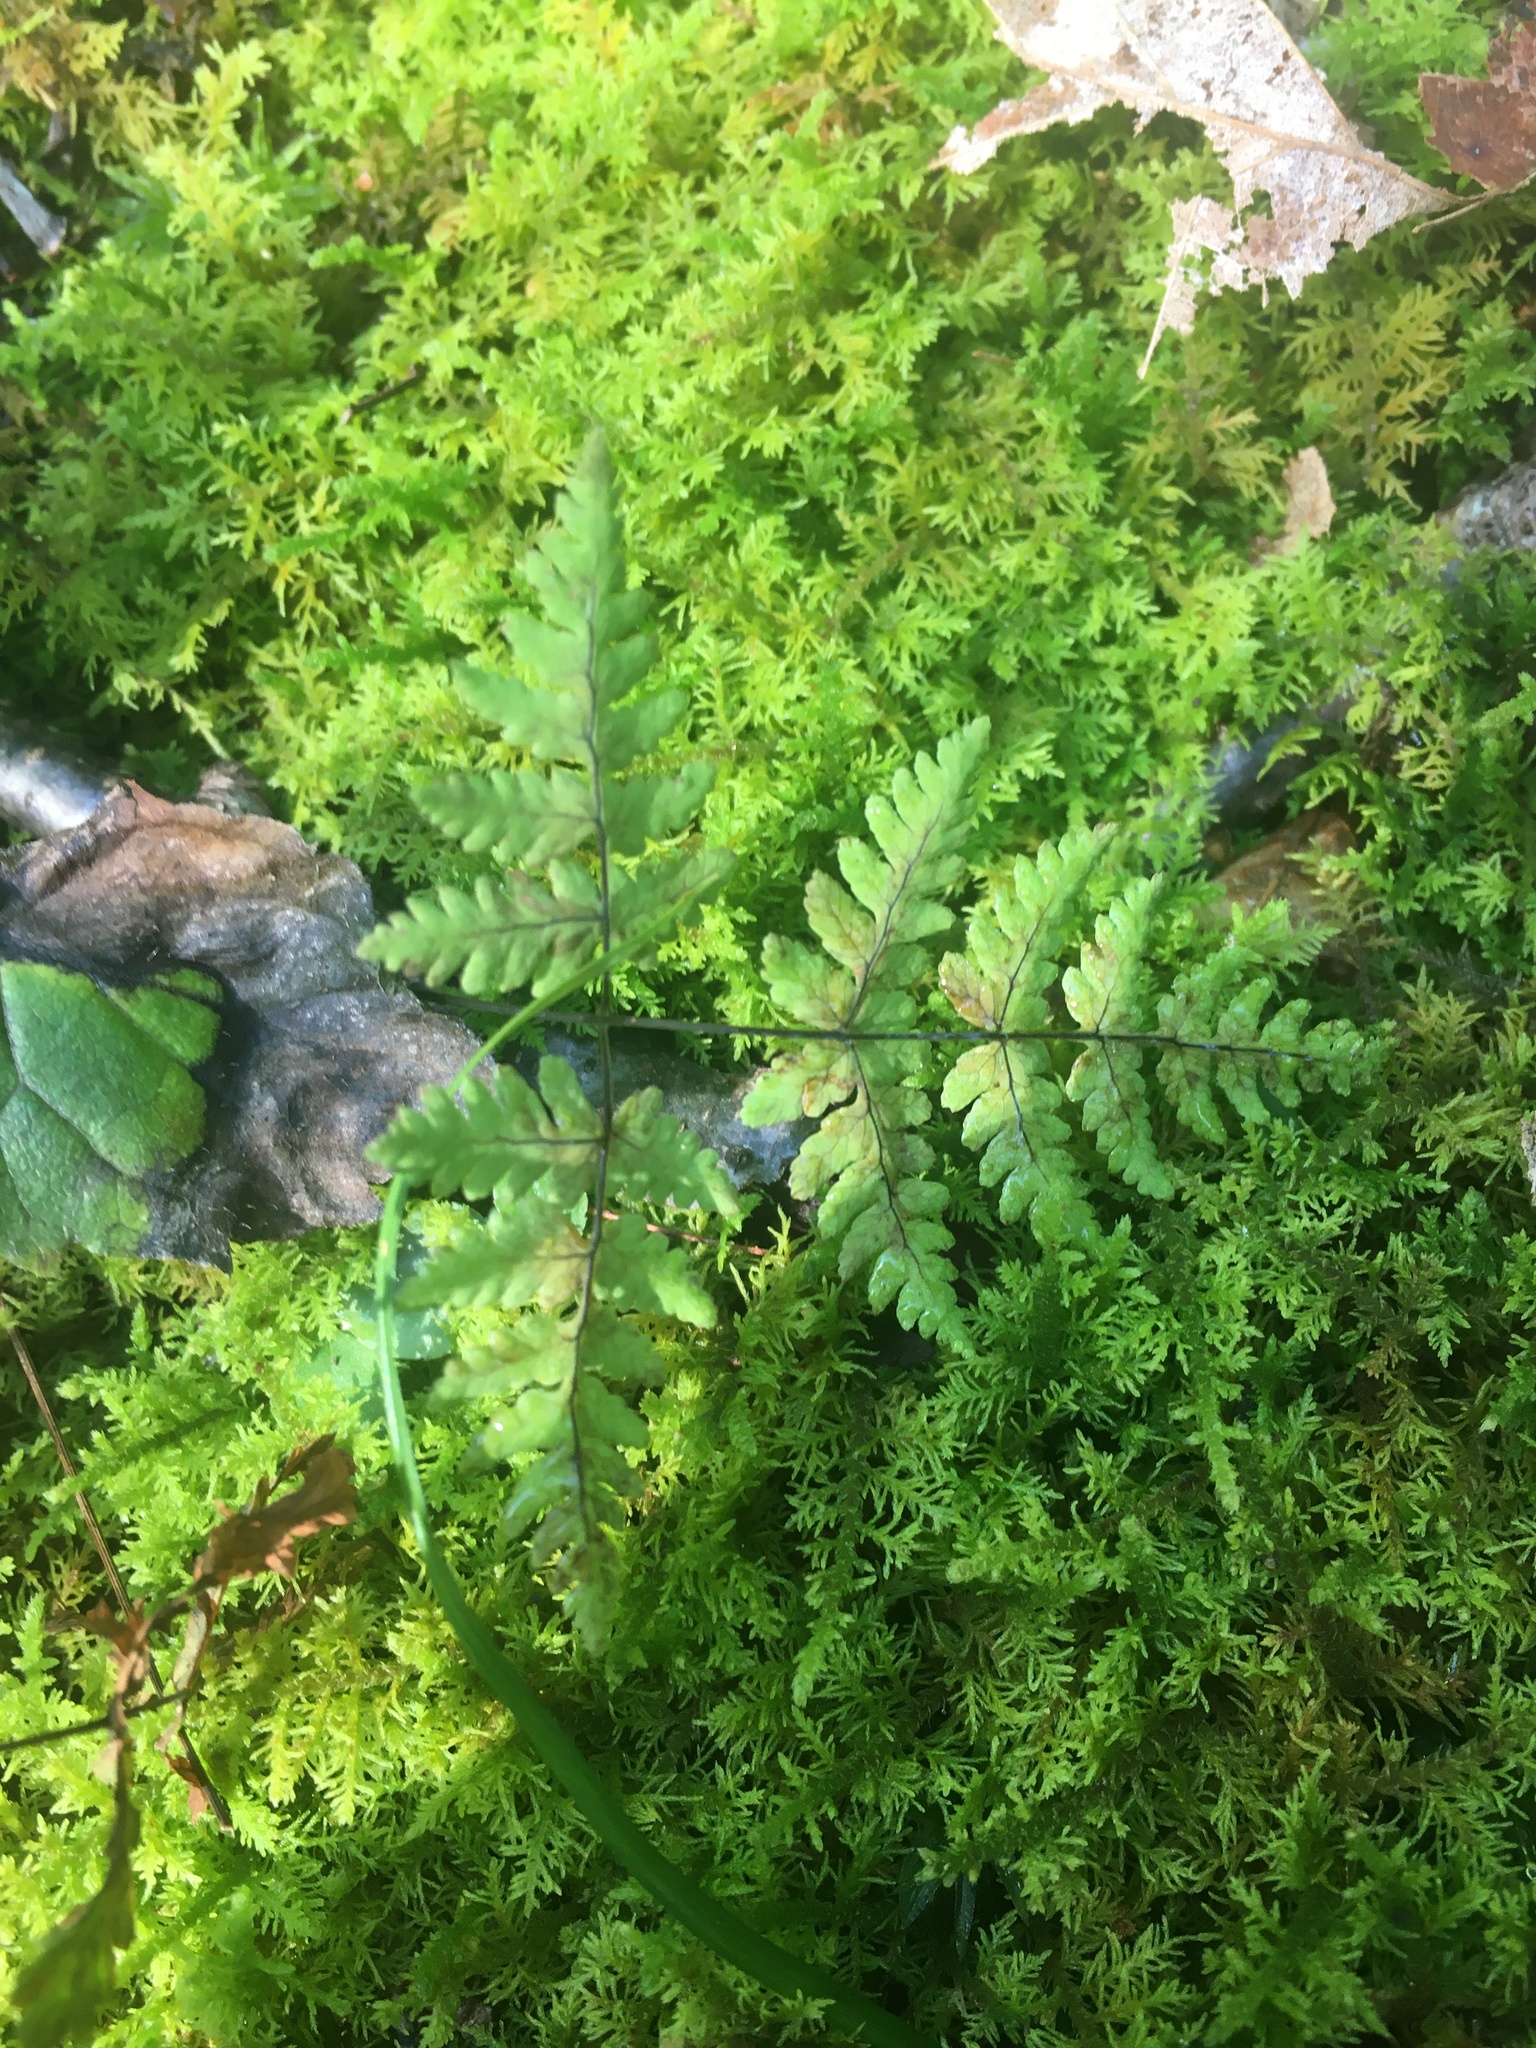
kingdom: Plantae
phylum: Tracheophyta
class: Polypodiopsida
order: Polypodiales
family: Cystopteridaceae
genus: Gymnocarpium
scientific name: Gymnocarpium dryopteris
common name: Oak fern
